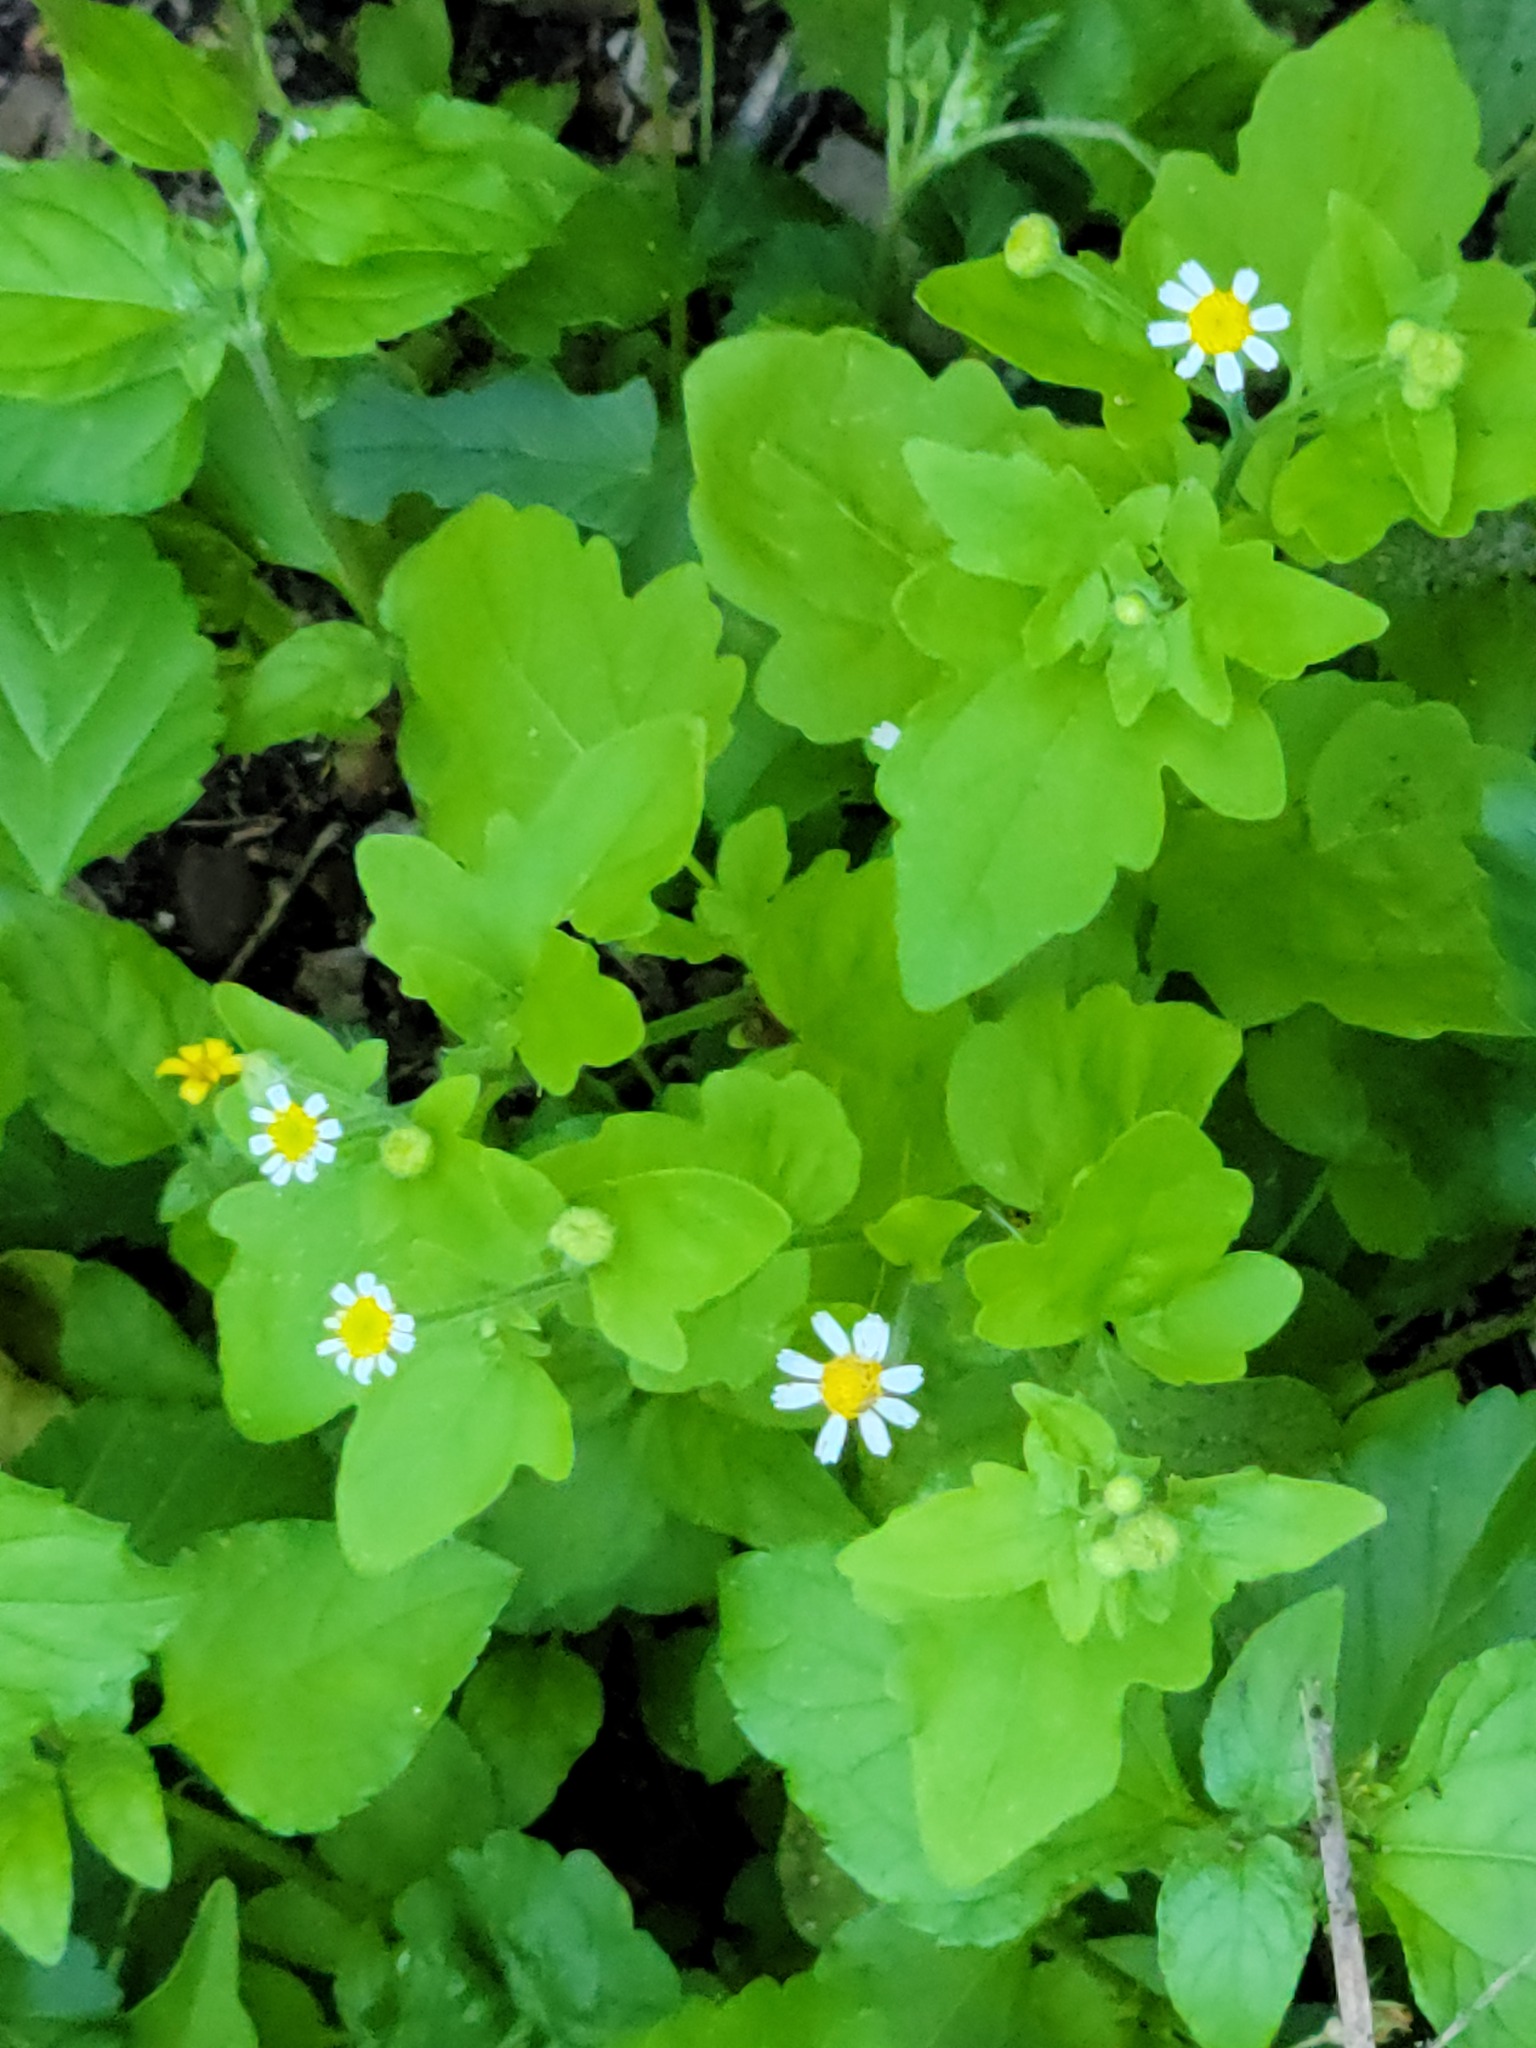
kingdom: Plantae
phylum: Tracheophyta
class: Magnoliopsida
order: Asterales
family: Asteraceae
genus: Galinsogeopsis
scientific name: Galinsogeopsis spilanthoides
